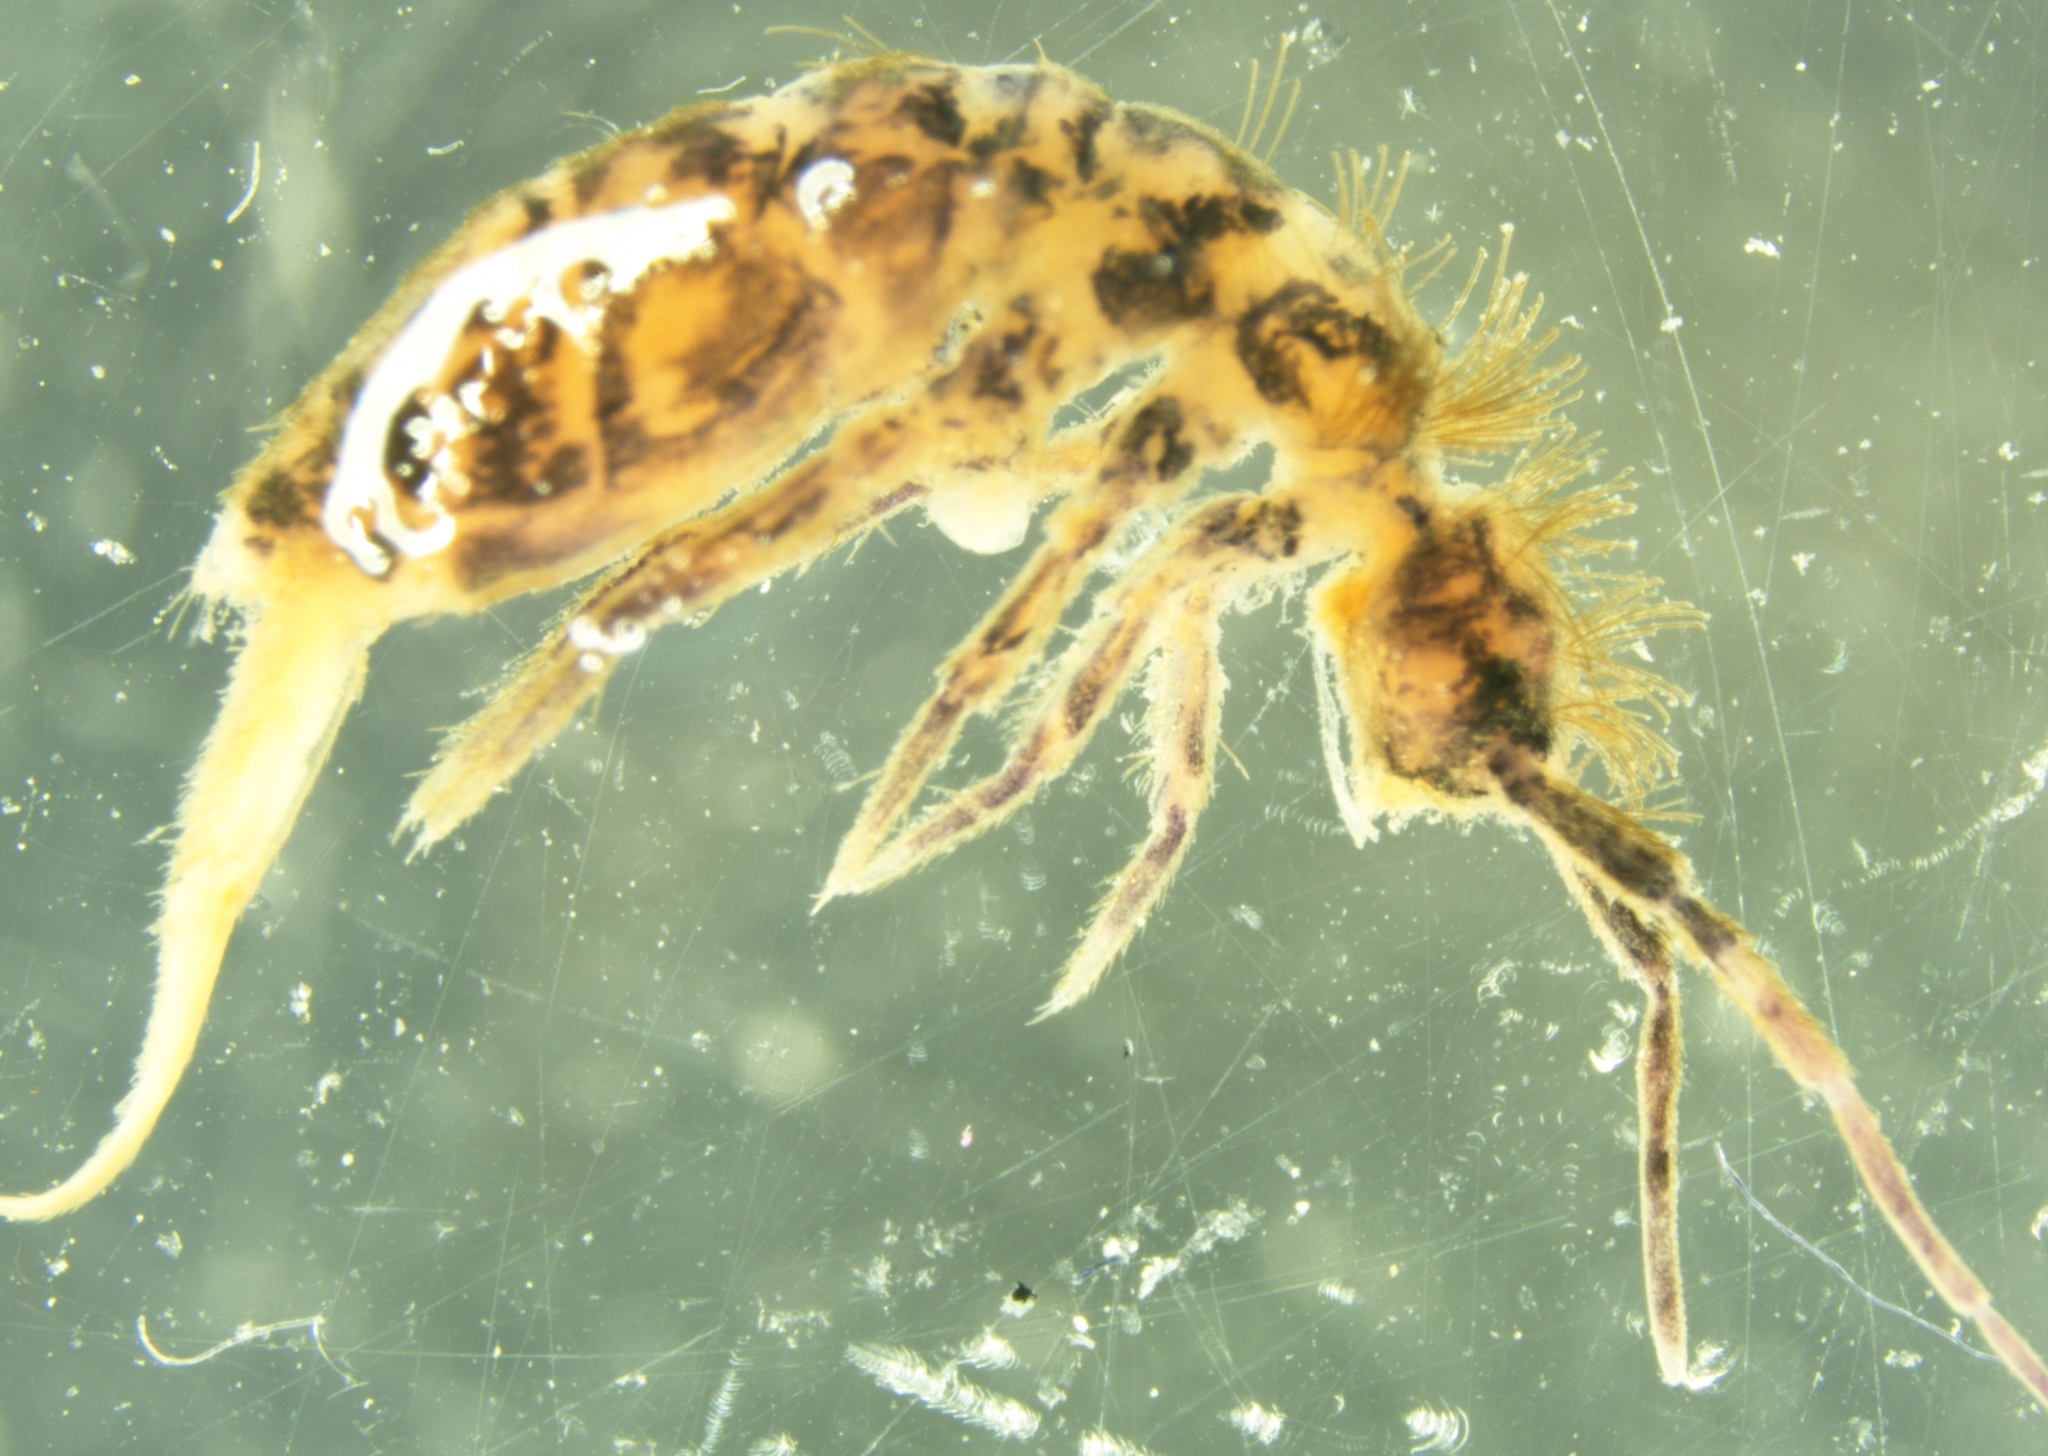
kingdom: Animalia
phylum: Arthropoda
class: Collembola
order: Entomobryomorpha
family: Orchesellidae
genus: Orchesella
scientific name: Orchesella villosa
